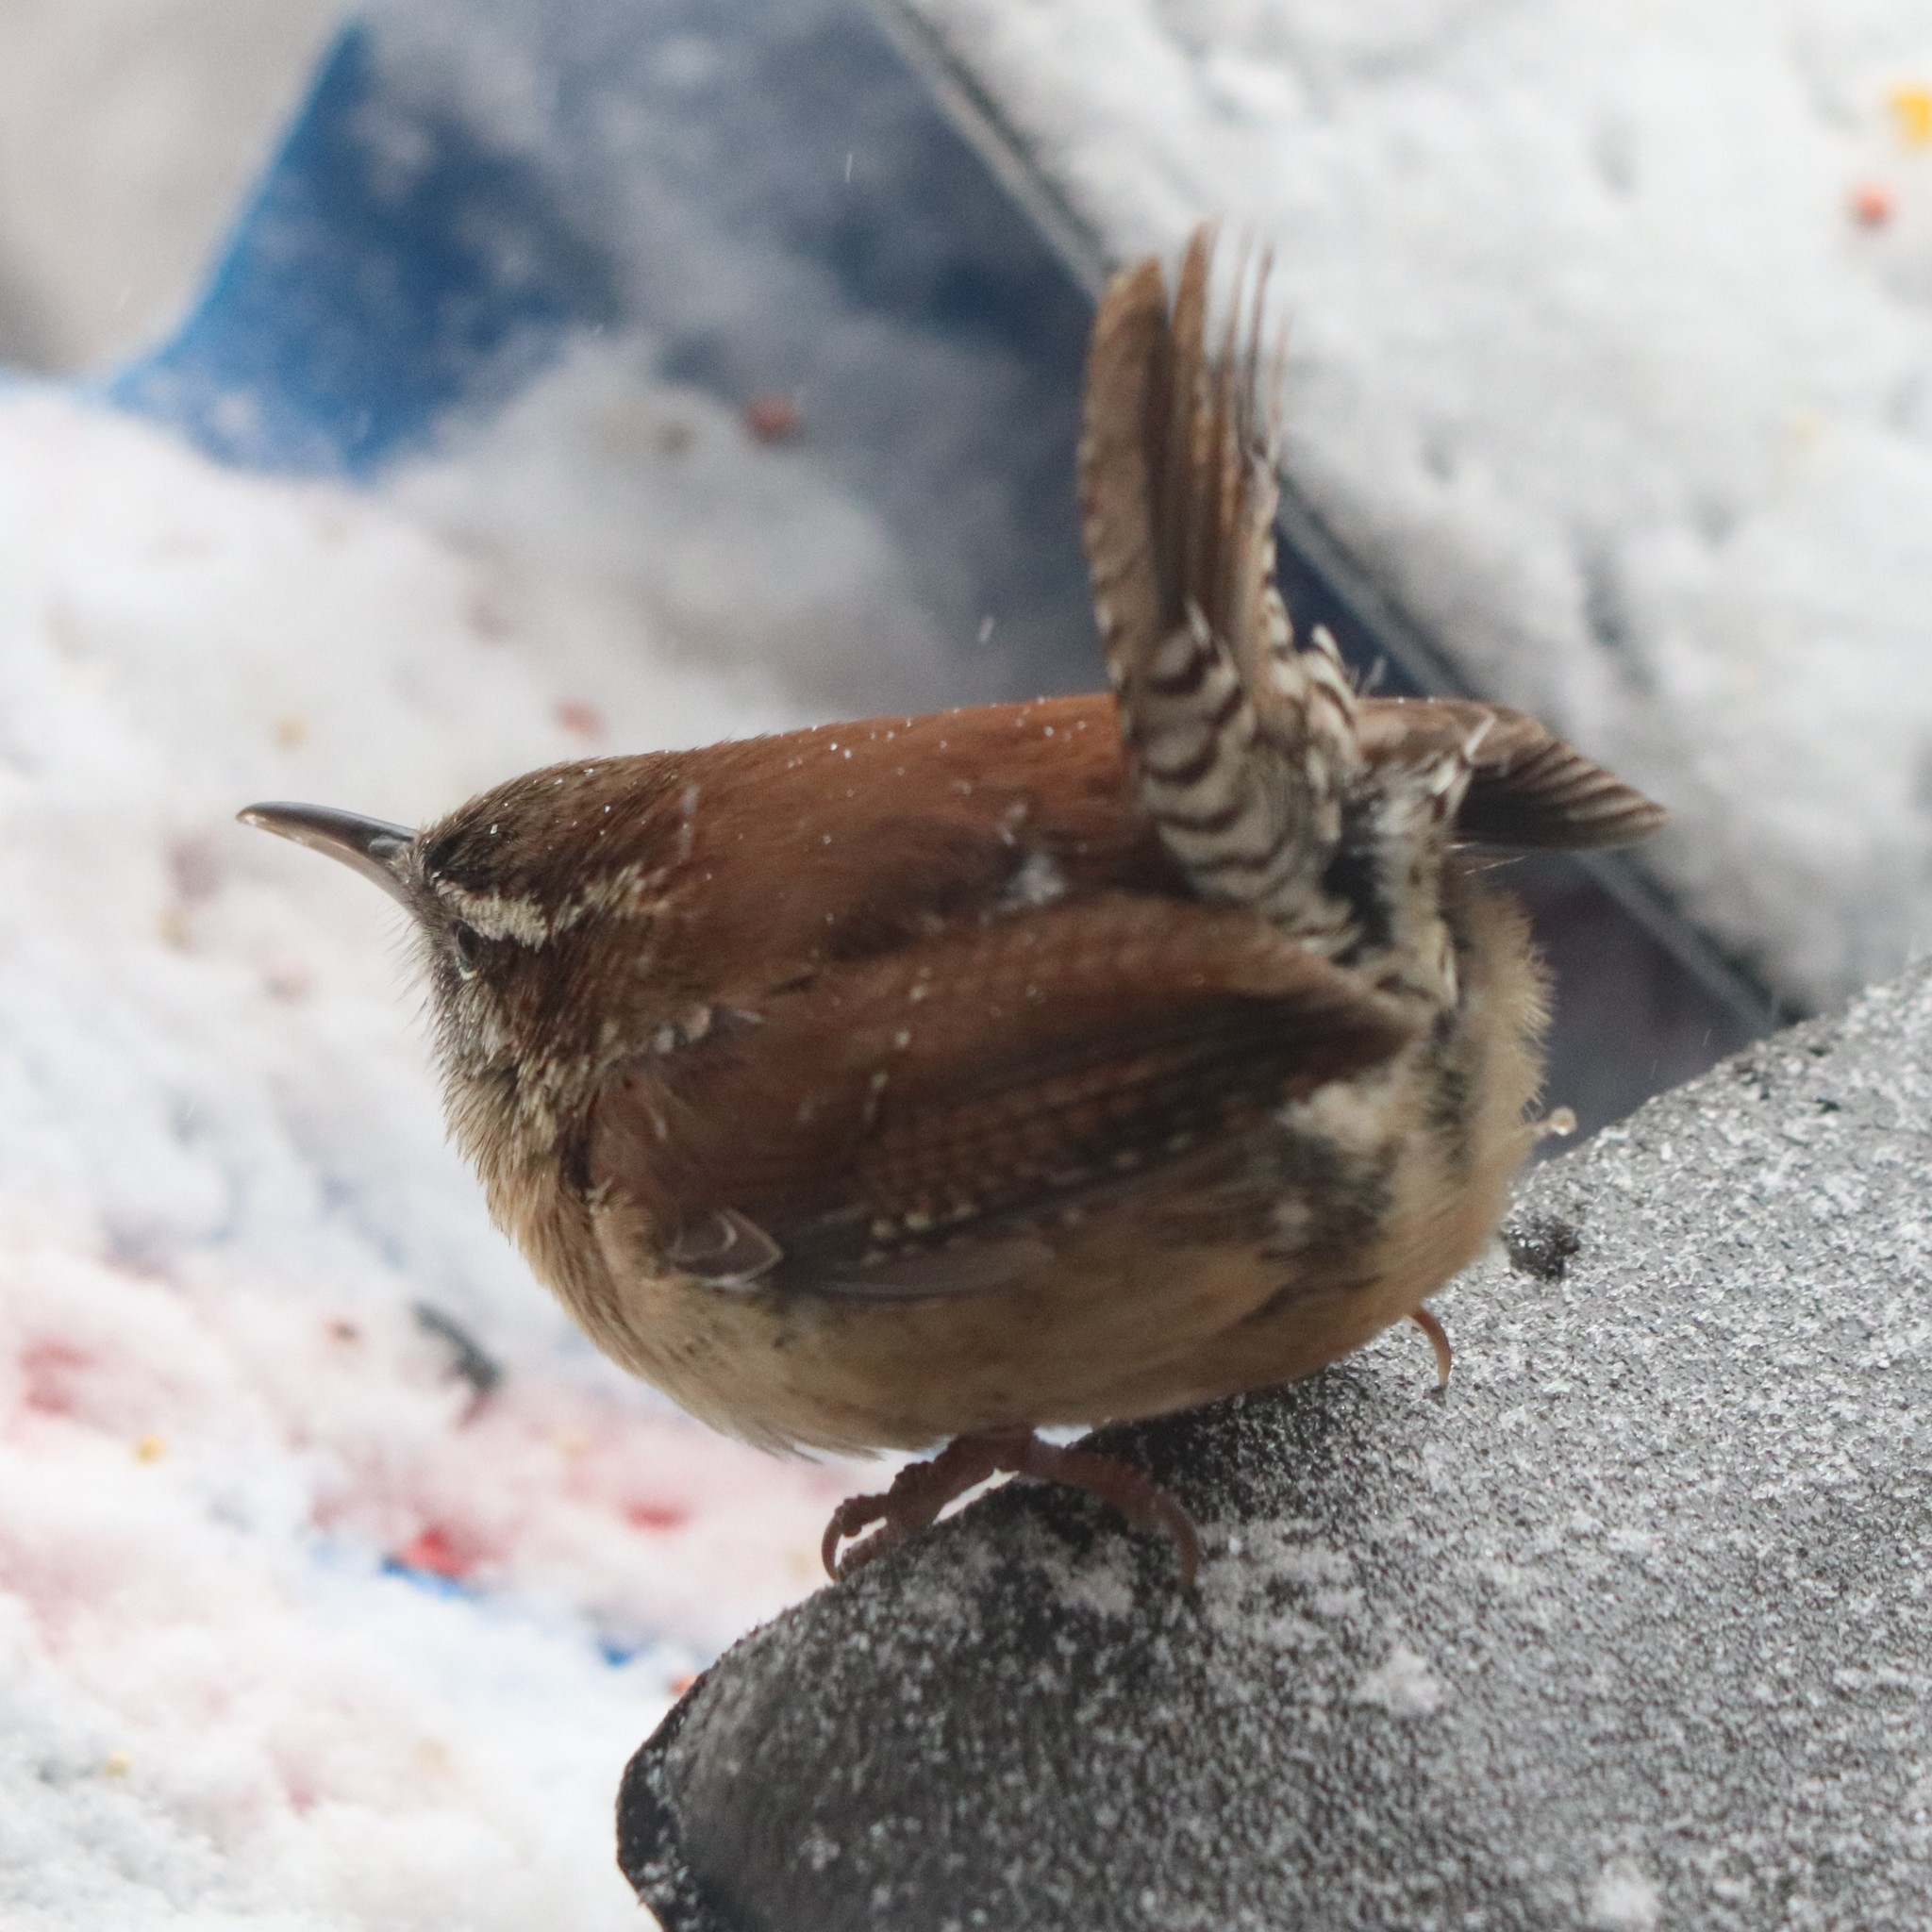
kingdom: Animalia
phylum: Chordata
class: Aves
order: Passeriformes
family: Troglodytidae
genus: Thryothorus
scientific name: Thryothorus ludovicianus
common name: Carolina wren
